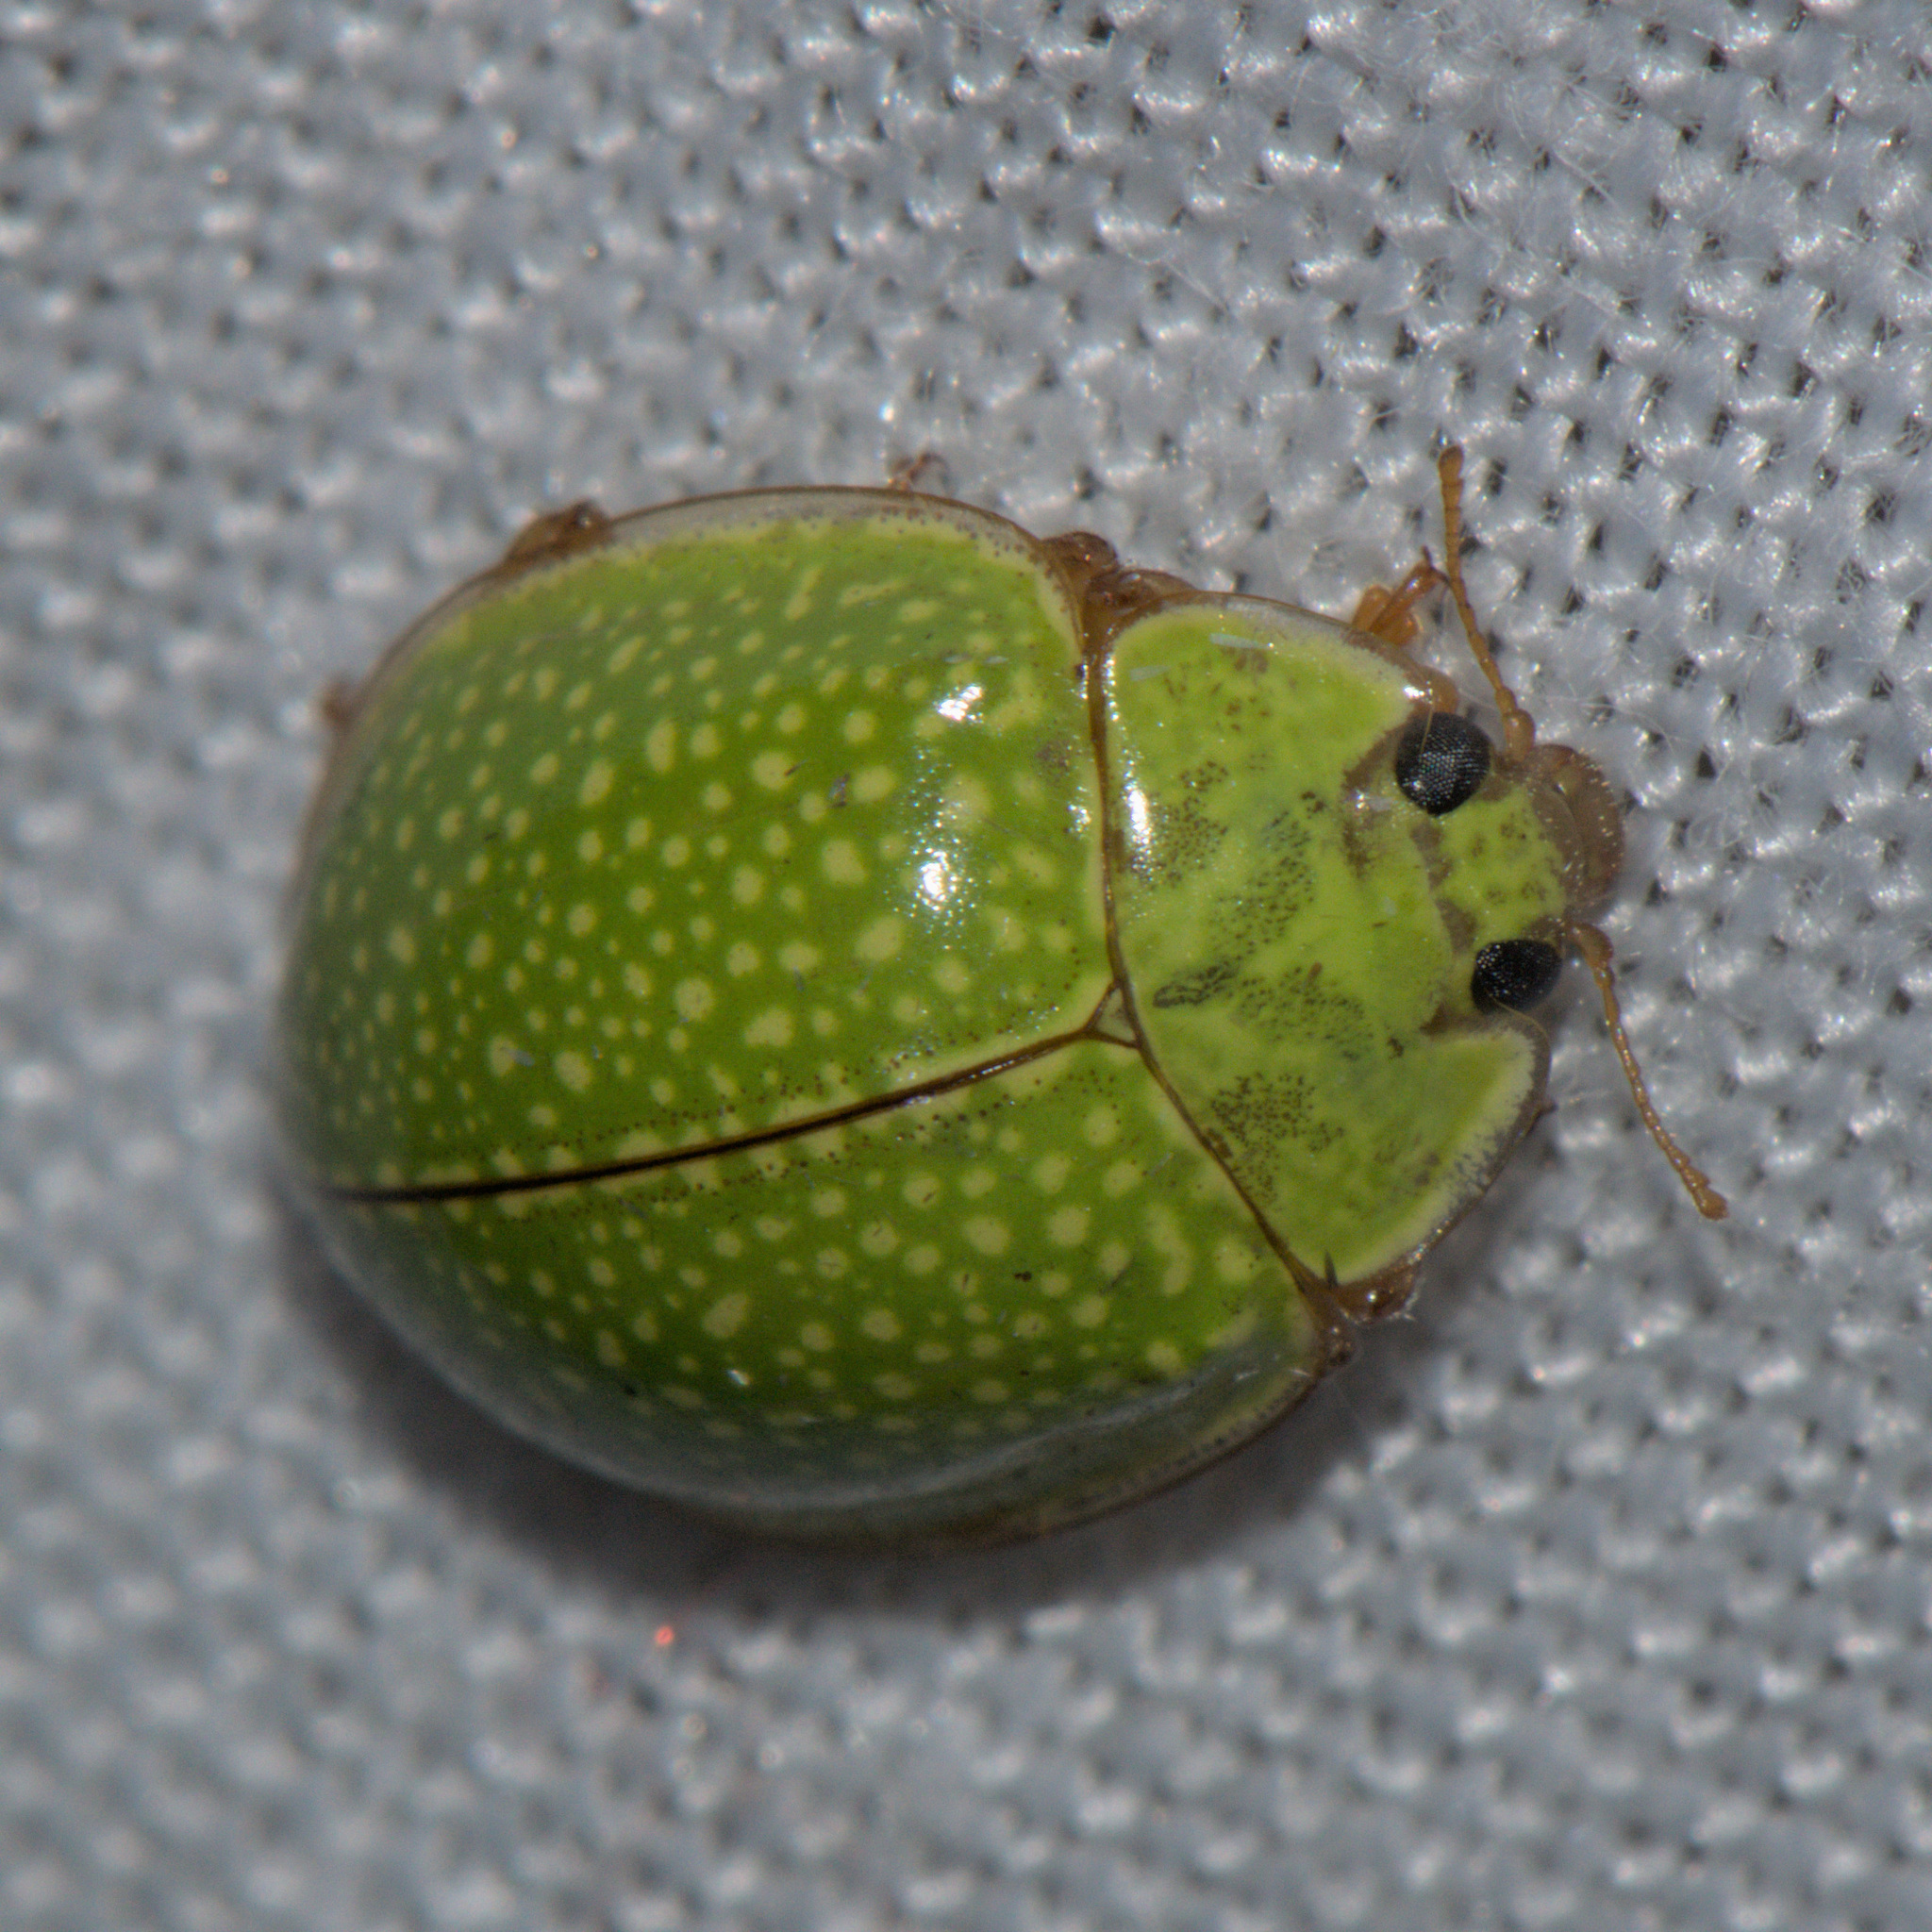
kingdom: Animalia
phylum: Arthropoda
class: Insecta
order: Coleoptera
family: Coccinellidae
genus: Calvia
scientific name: Calvia
